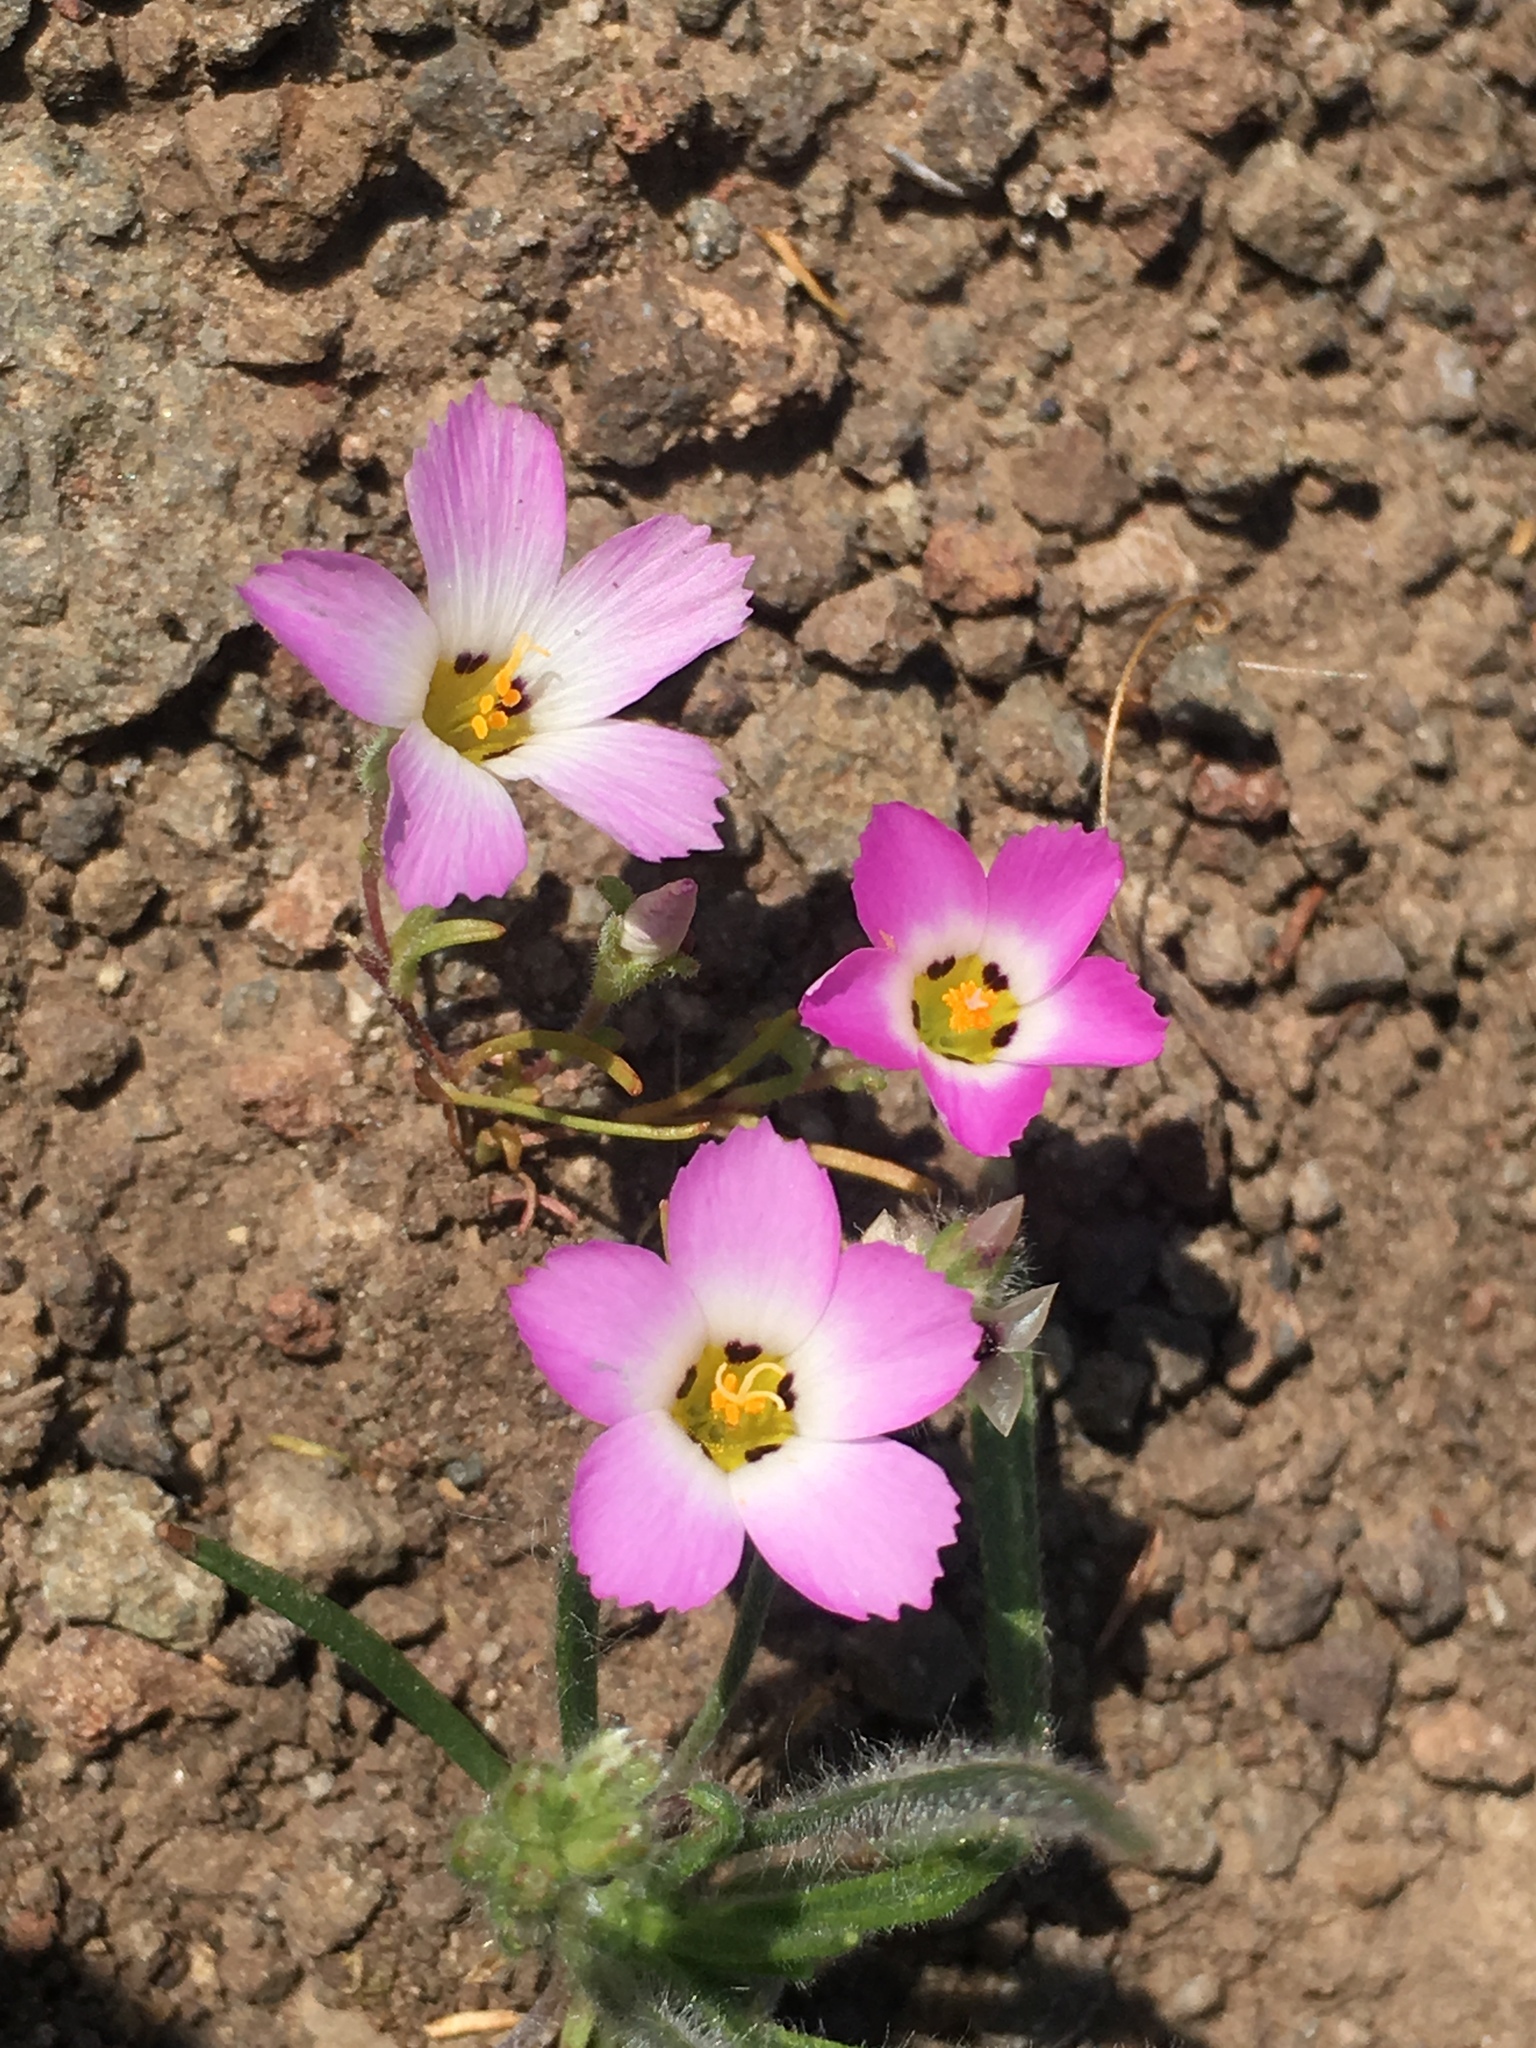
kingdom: Plantae
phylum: Tracheophyta
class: Magnoliopsida
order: Ericales
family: Polemoniaceae
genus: Linanthus
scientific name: Linanthus dianthiflorus
